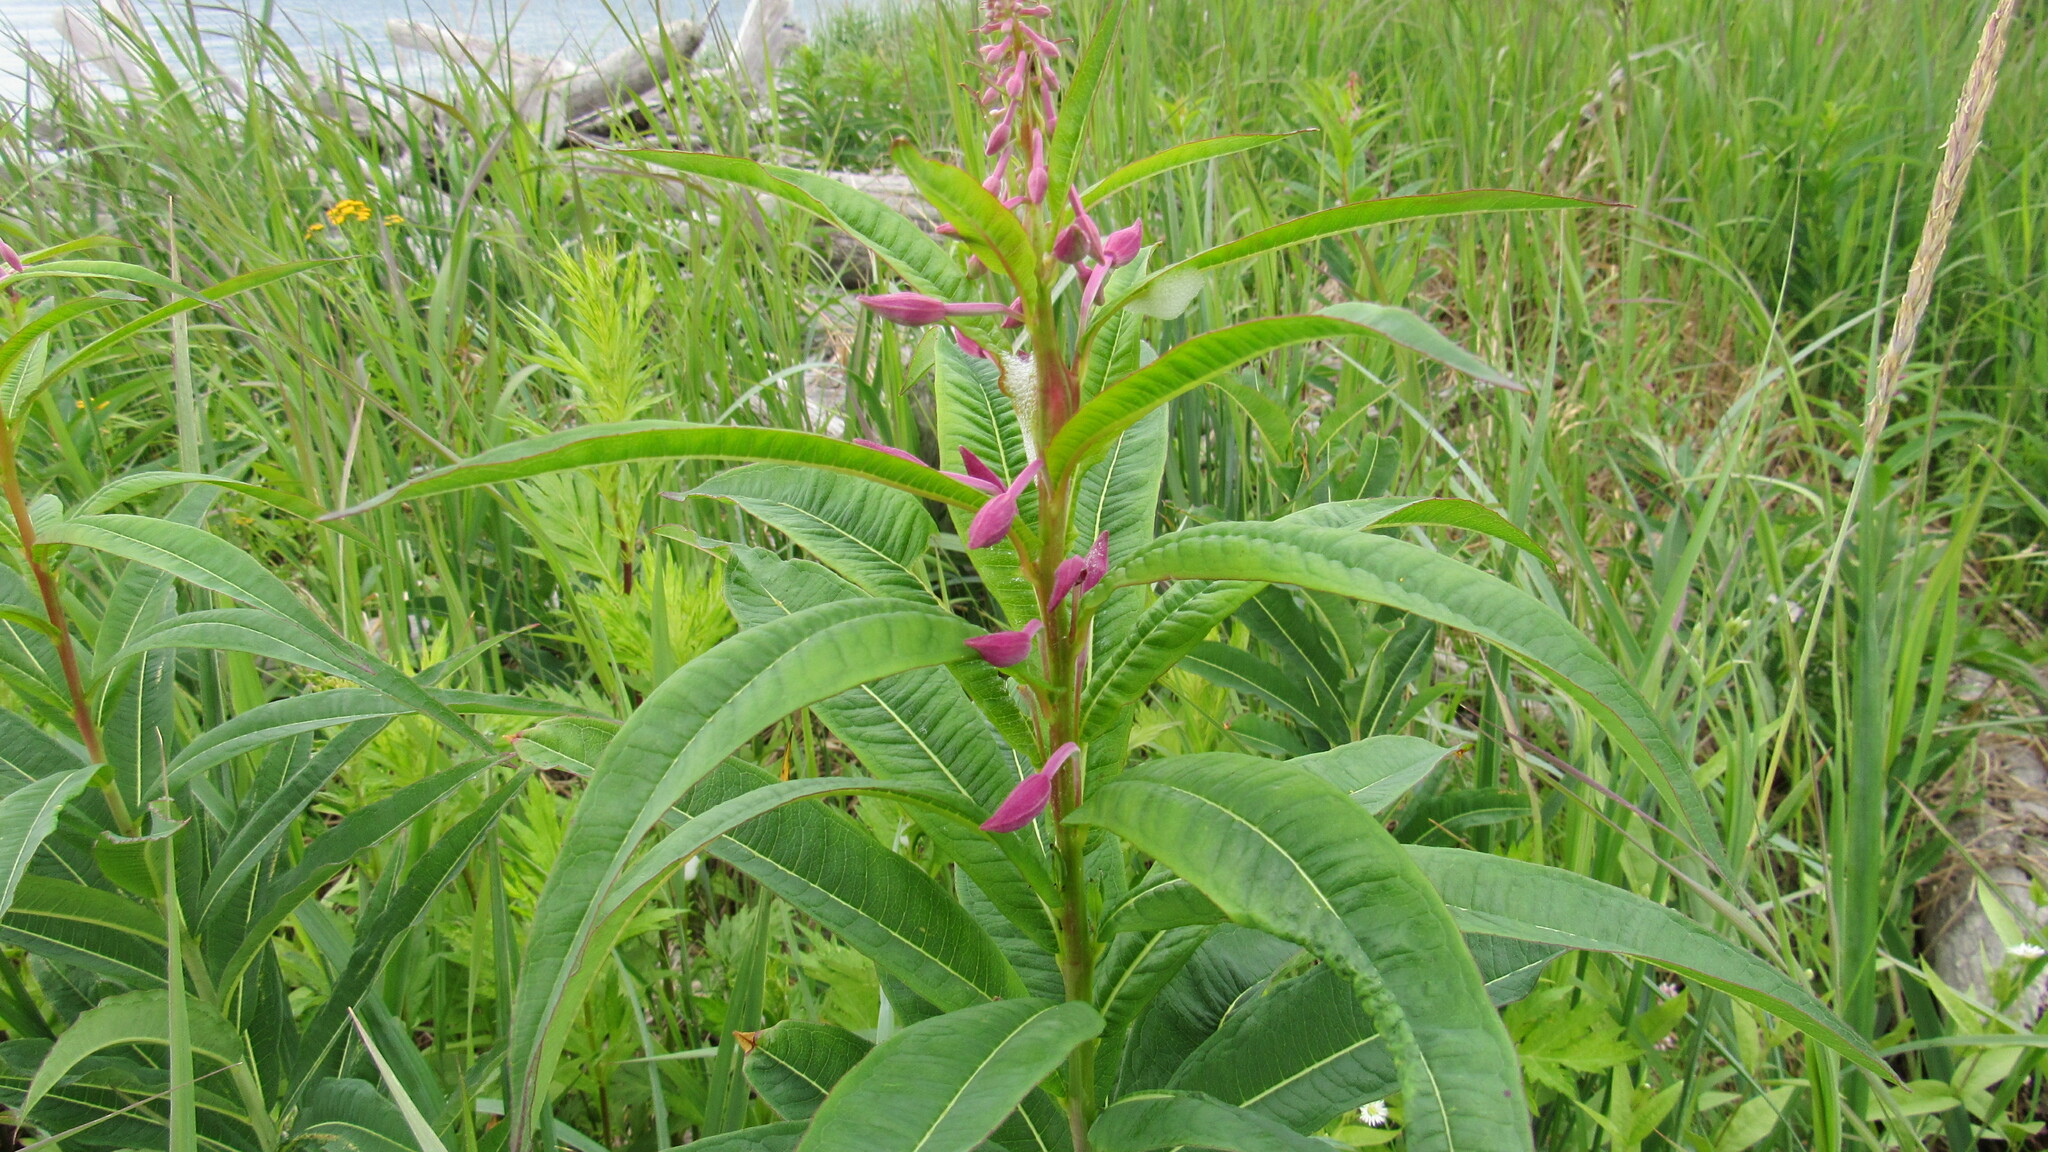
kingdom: Plantae
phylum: Tracheophyta
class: Magnoliopsida
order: Myrtales
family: Onagraceae
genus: Chamaenerion
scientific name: Chamaenerion angustifolium
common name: Fireweed
